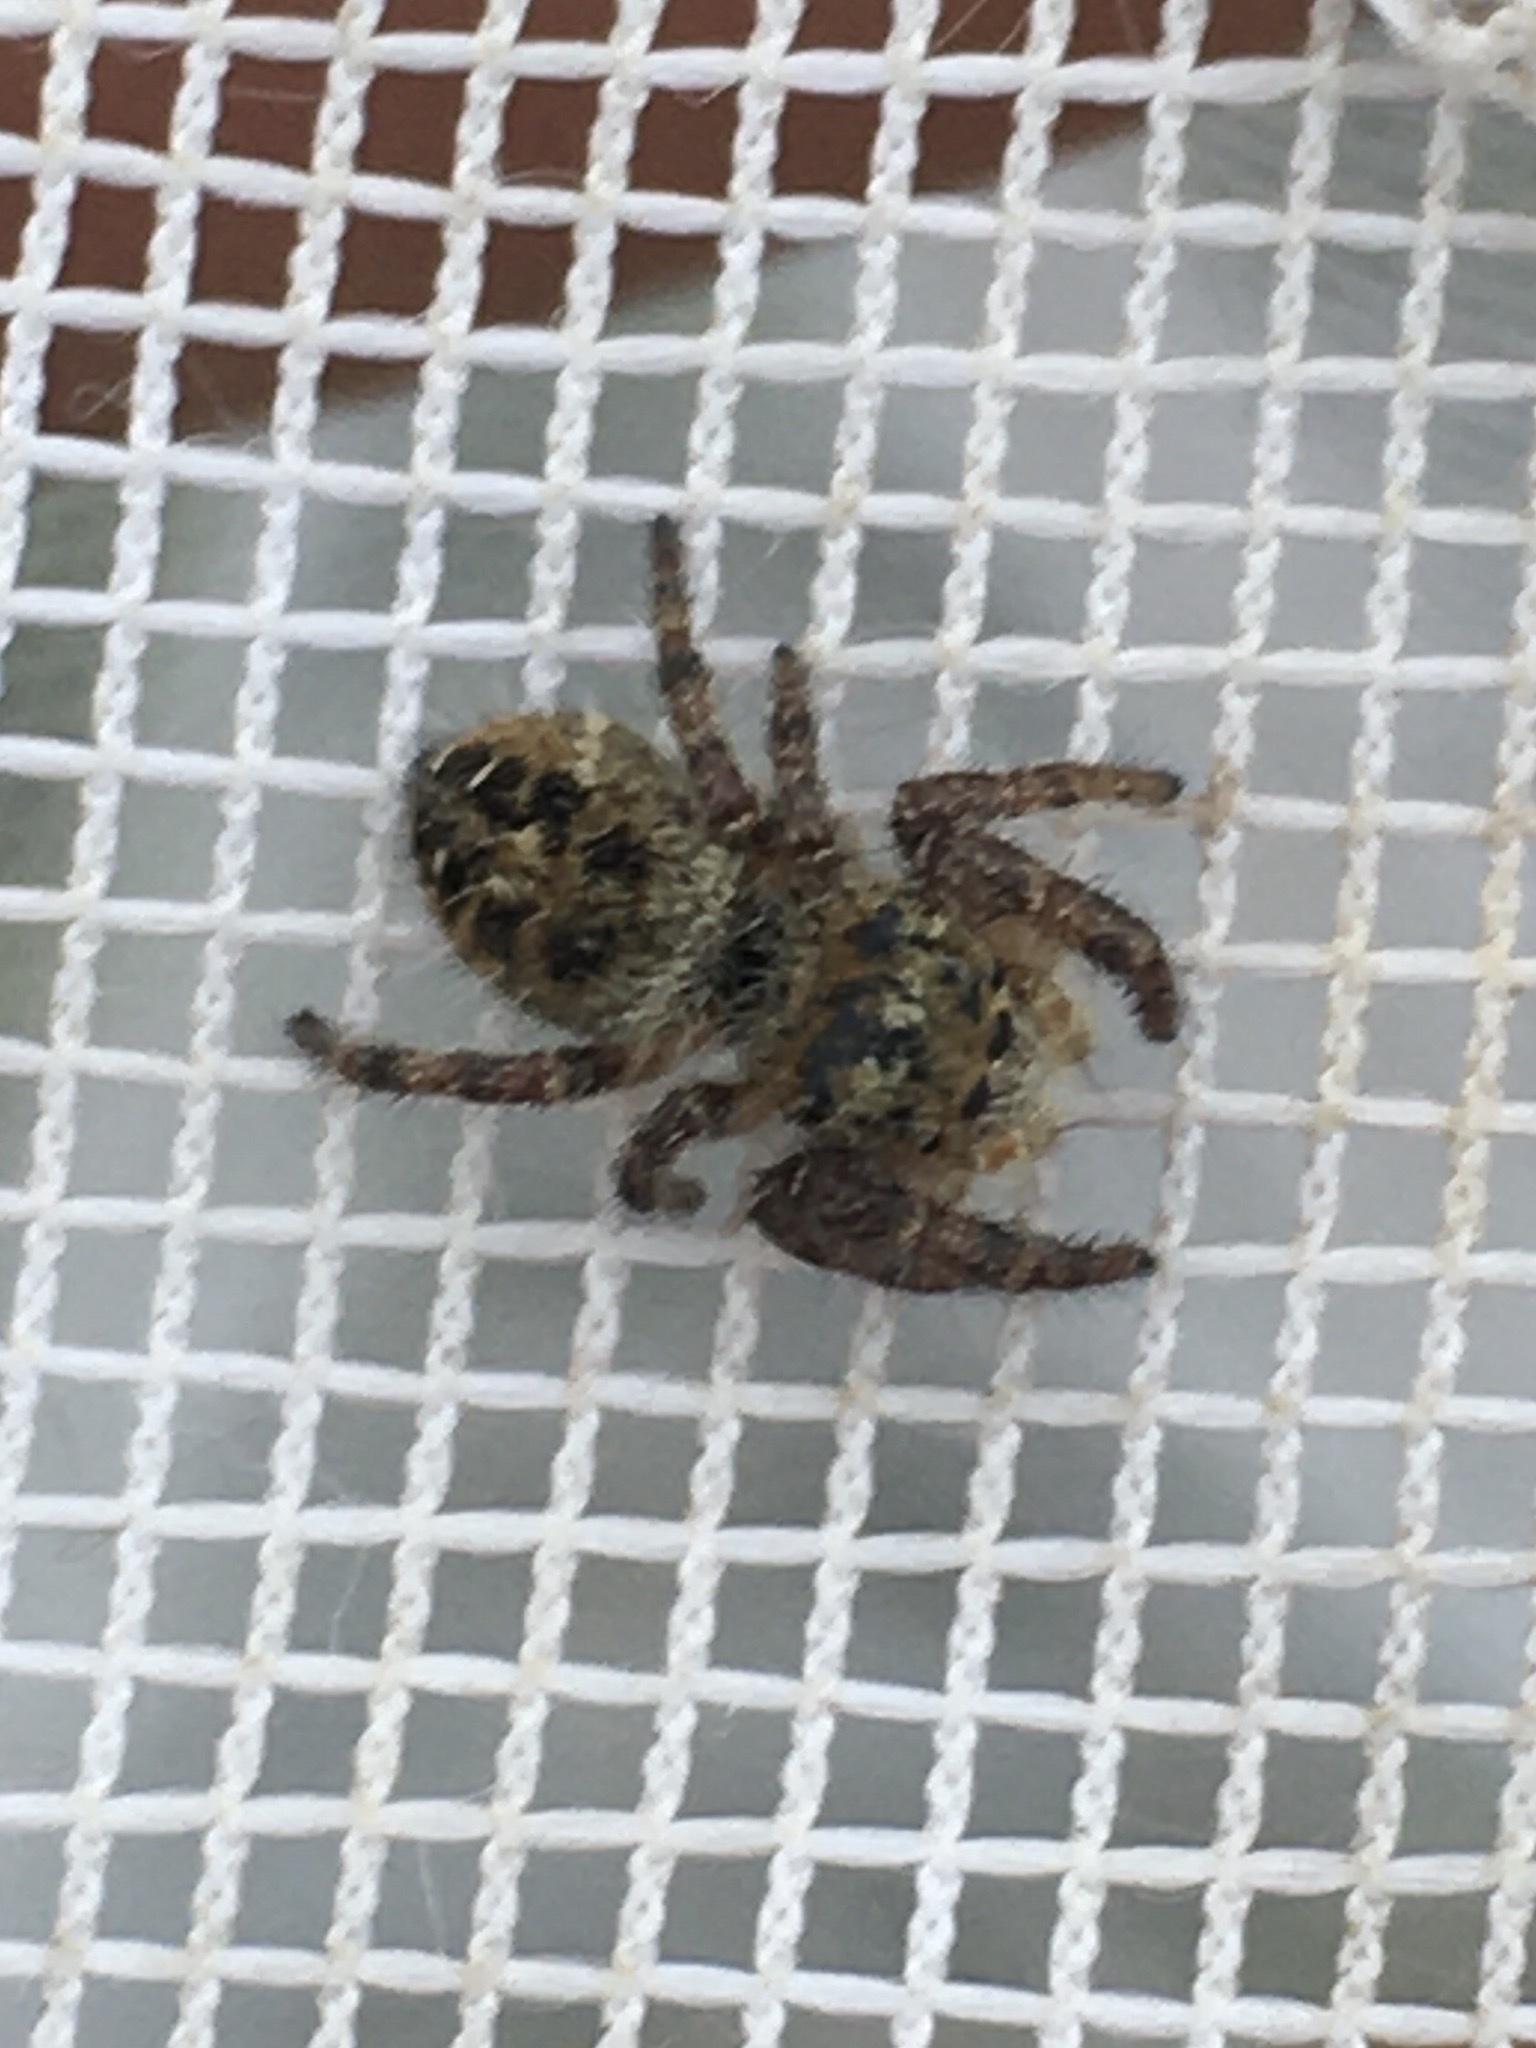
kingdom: Animalia
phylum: Arthropoda
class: Arachnida
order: Araneae
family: Salticidae
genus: Phidippus
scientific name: Phidippus princeps
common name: Grayish jumping spider
